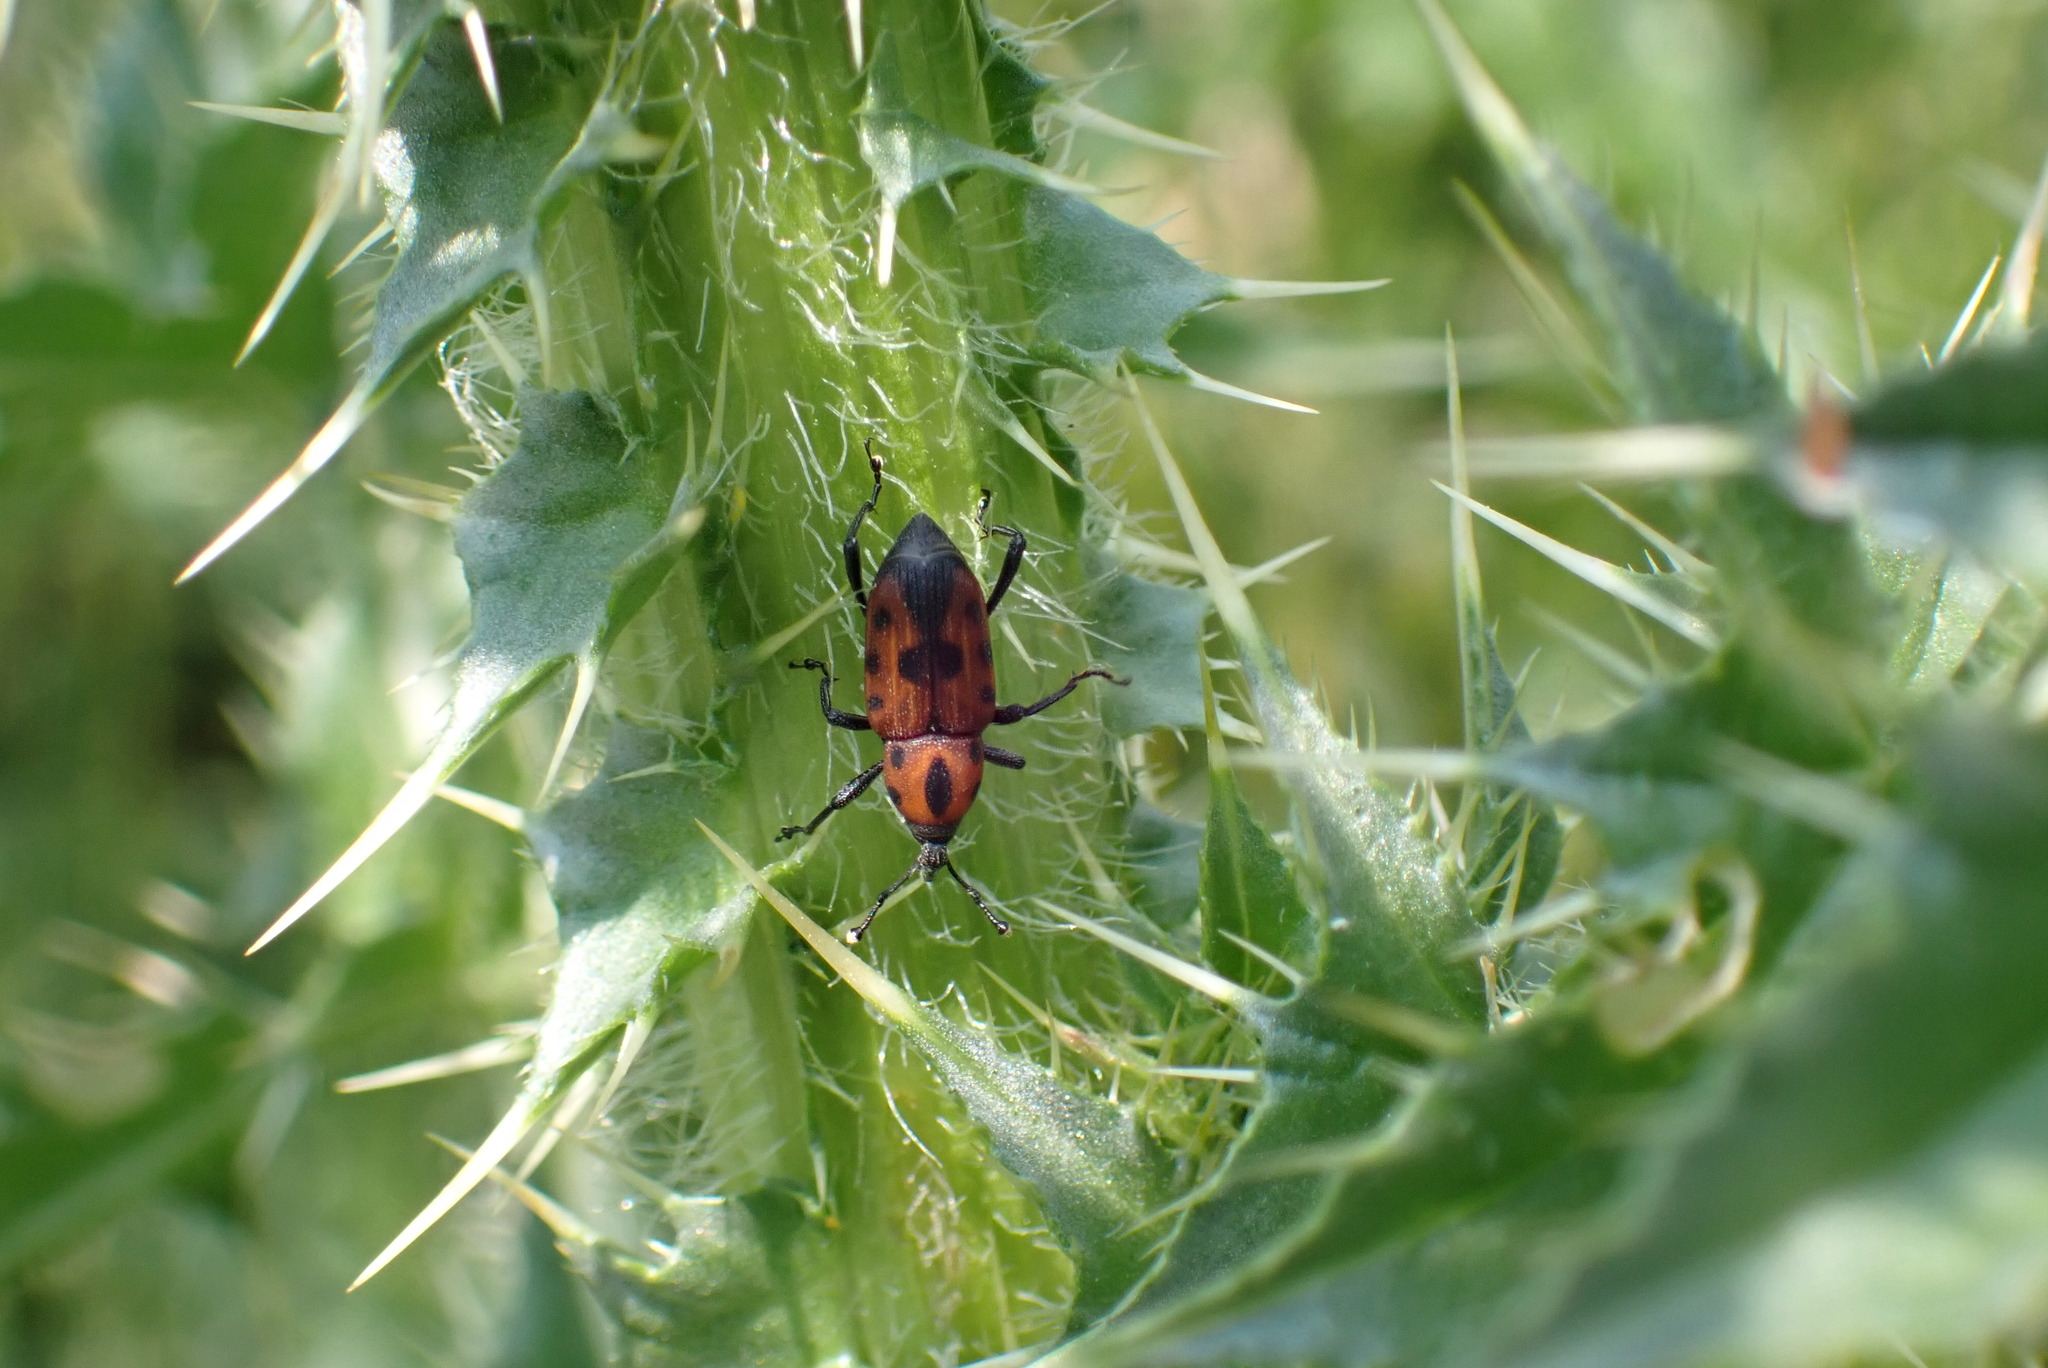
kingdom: Animalia
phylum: Arthropoda
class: Insecta
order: Coleoptera
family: Dryophthoridae
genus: Rhodobaenus
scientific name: Rhodobaenus quinquepunctatus
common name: Cocklebur weevil
